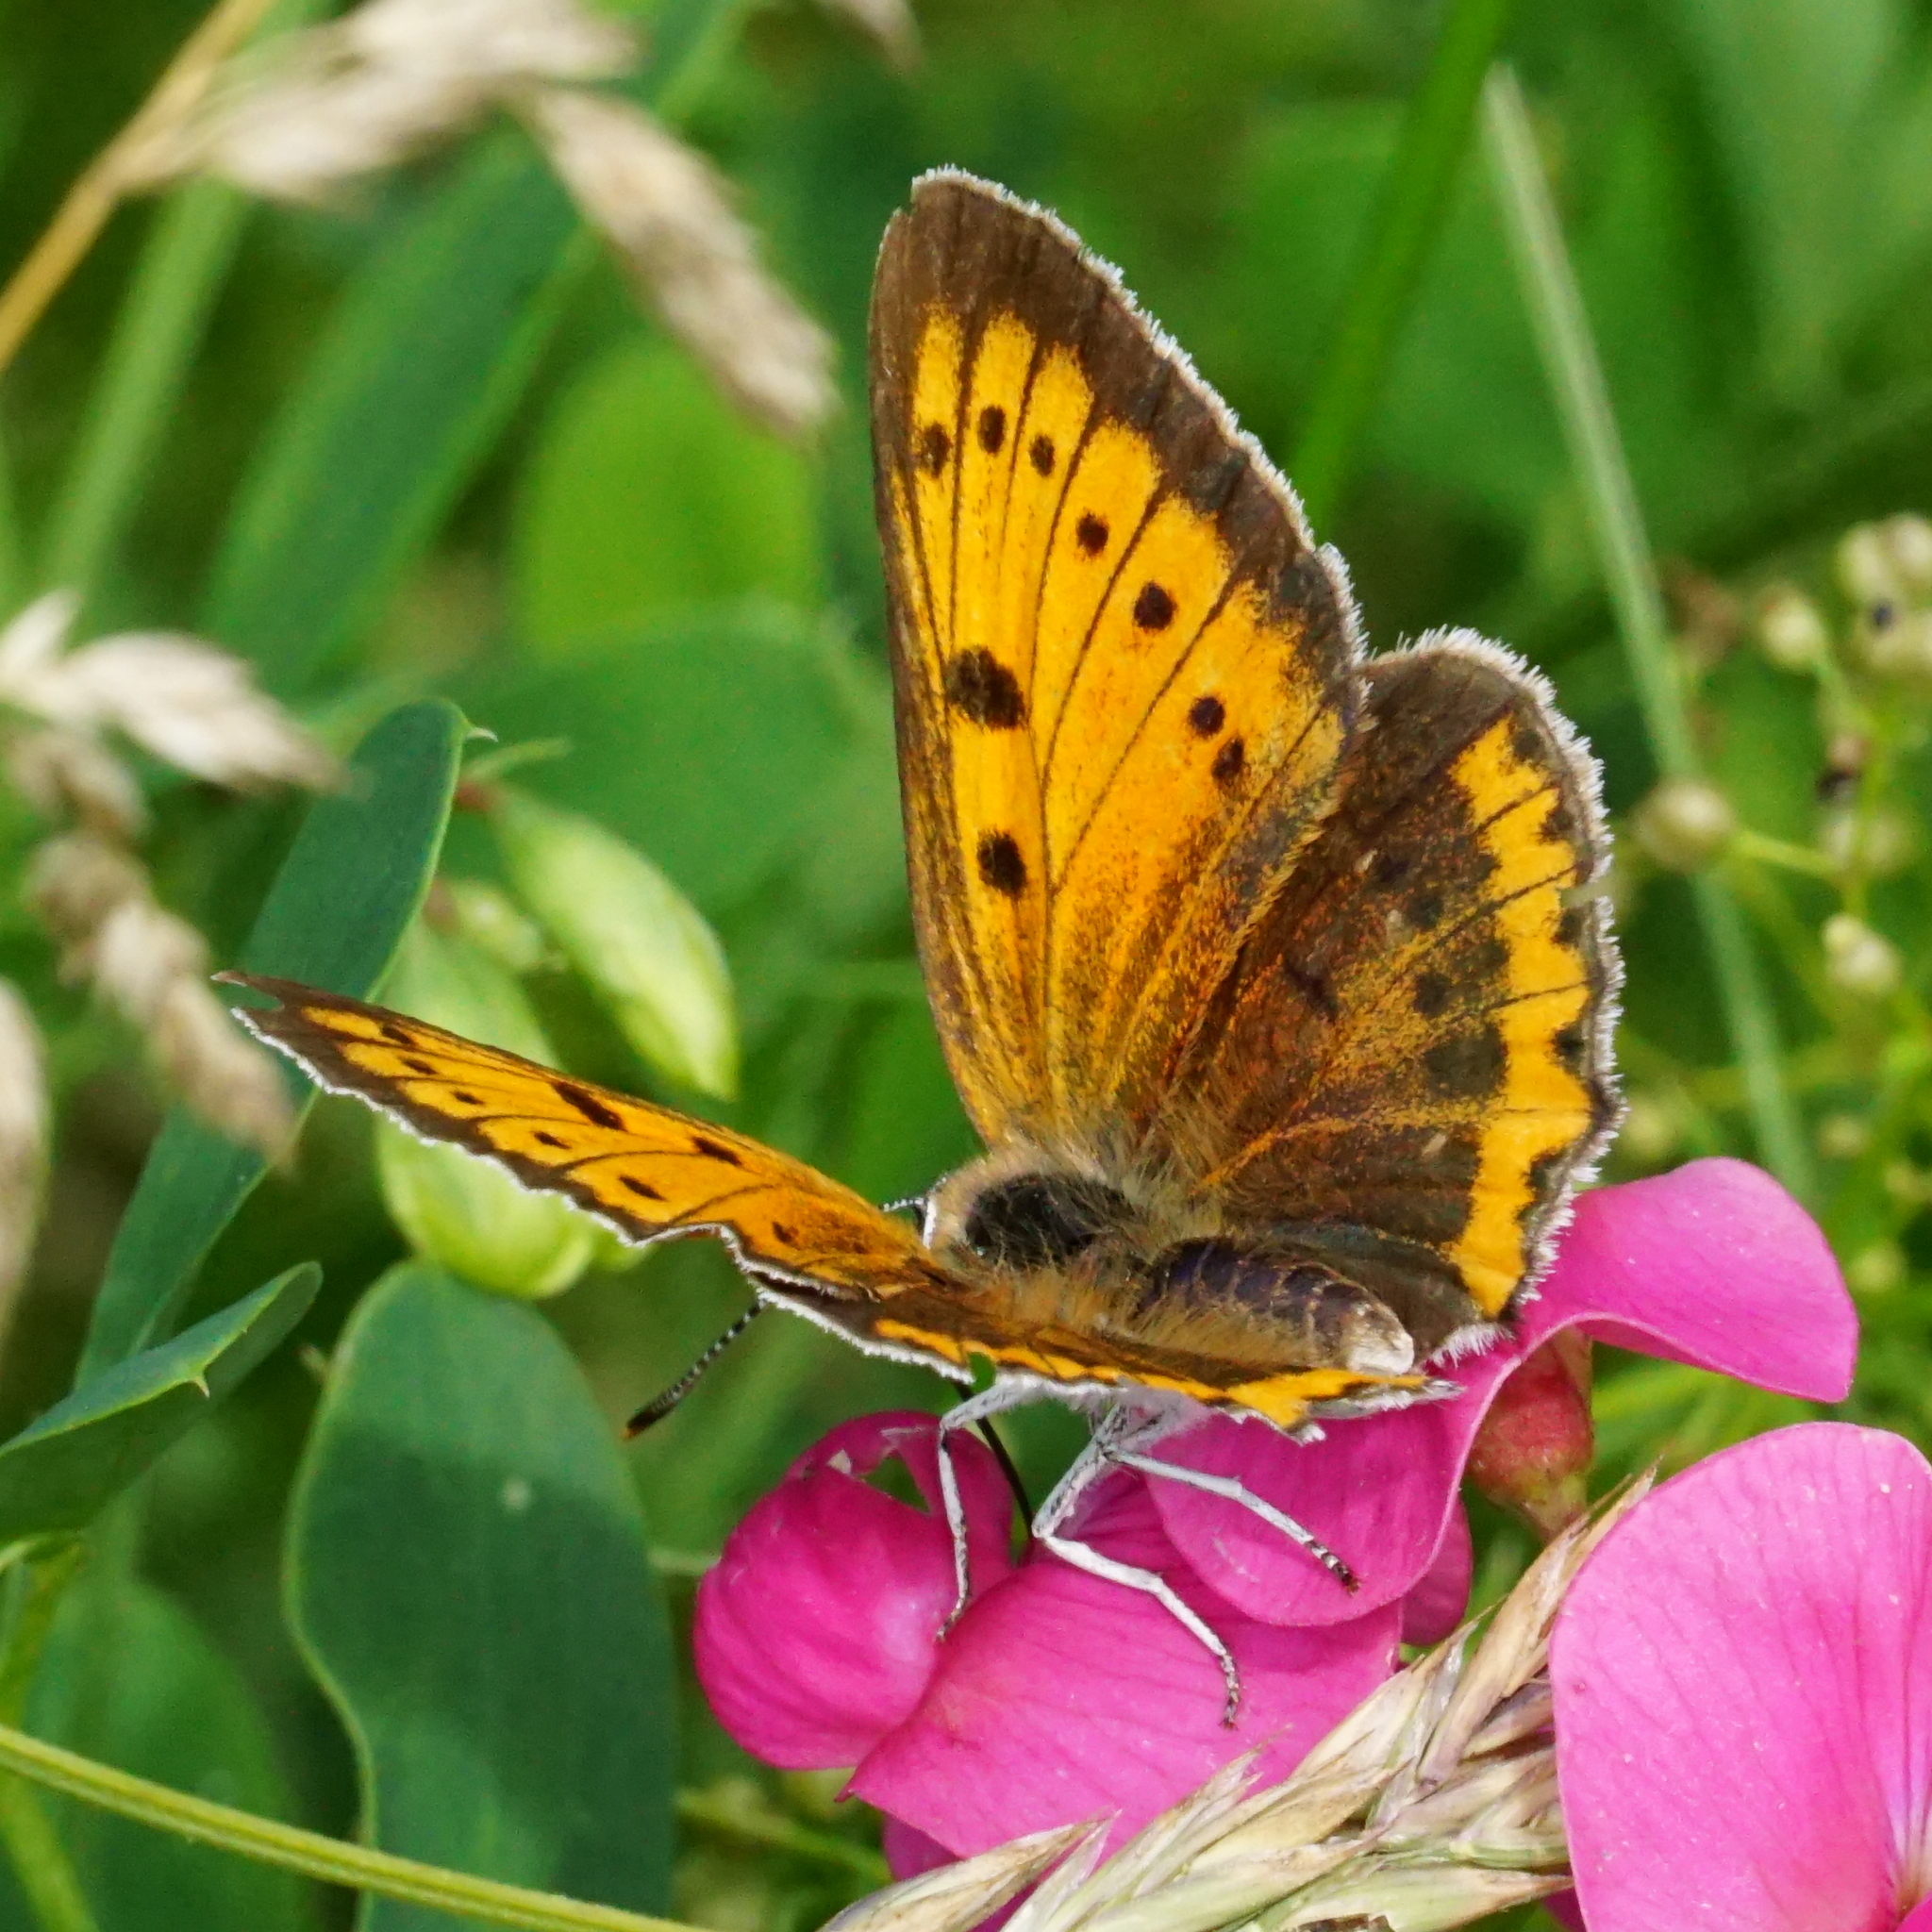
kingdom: Animalia
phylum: Arthropoda
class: Insecta
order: Lepidoptera
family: Lycaenidae
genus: Lycaena
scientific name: Lycaena dispar
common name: Large copper
